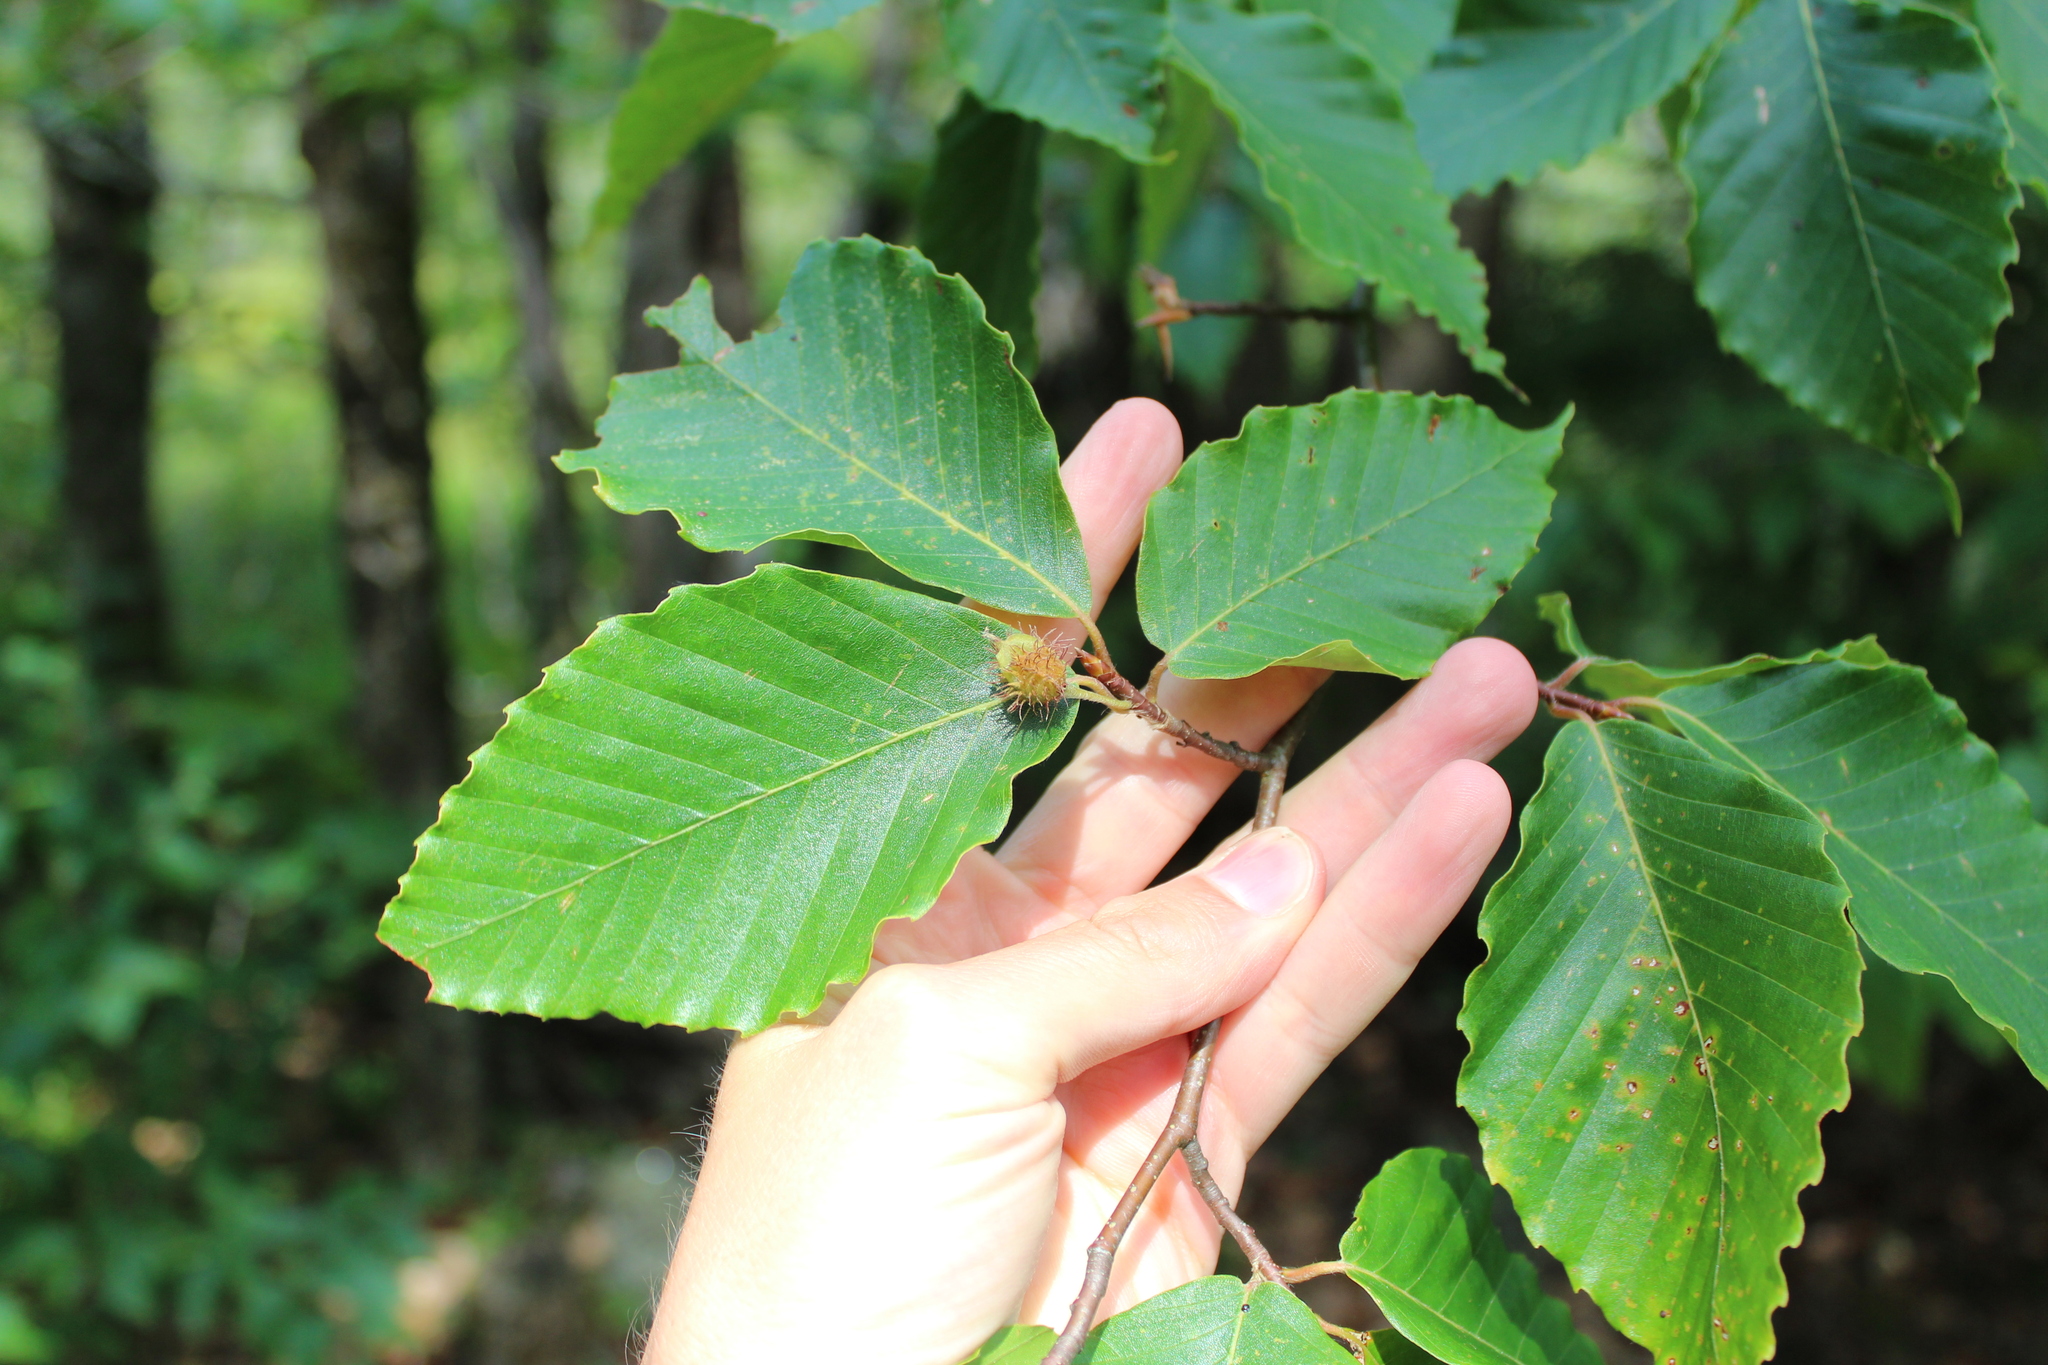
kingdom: Plantae
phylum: Tracheophyta
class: Magnoliopsida
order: Fagales
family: Fagaceae
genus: Fagus
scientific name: Fagus grandifolia
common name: American beech
